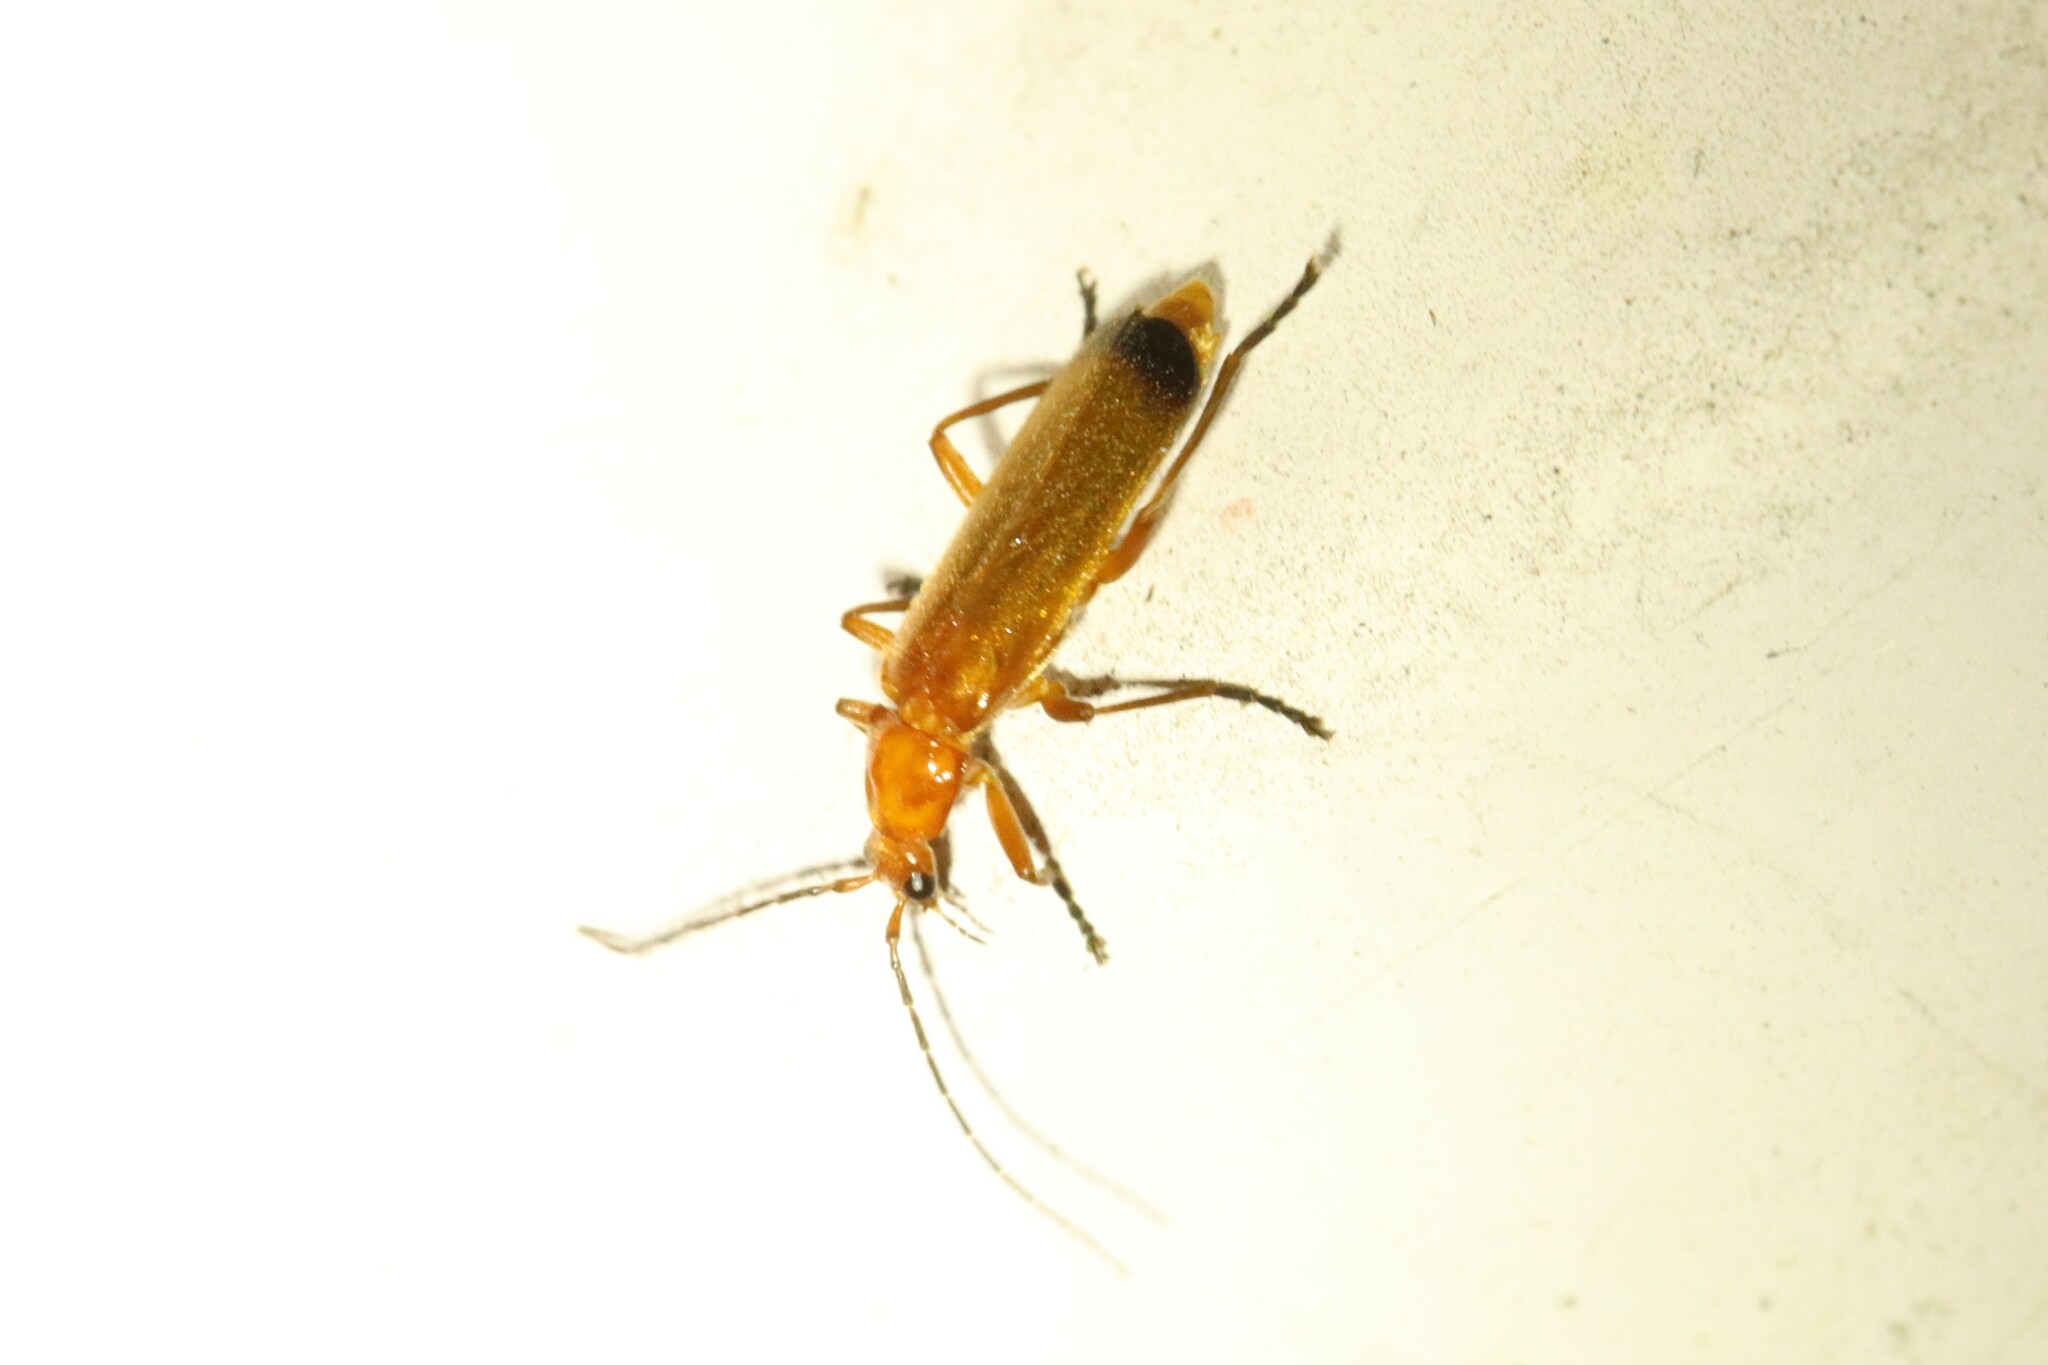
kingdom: Animalia
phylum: Arthropoda
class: Insecta
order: Coleoptera
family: Cantharidae
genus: Rhagonycha
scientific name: Rhagonycha fulva
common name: Common red soldier beetle
